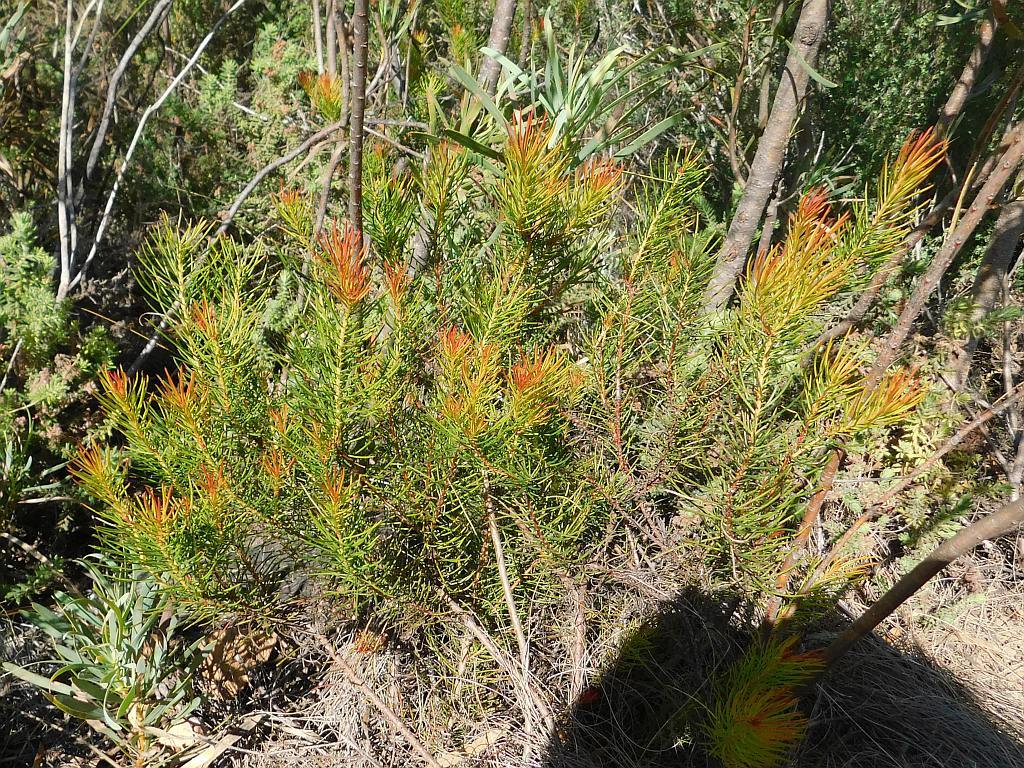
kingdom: Plantae
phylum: Tracheophyta
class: Magnoliopsida
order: Proteales
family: Proteaceae
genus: Protea
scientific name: Protea subulifolia
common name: Awl-leaf sugarbush
